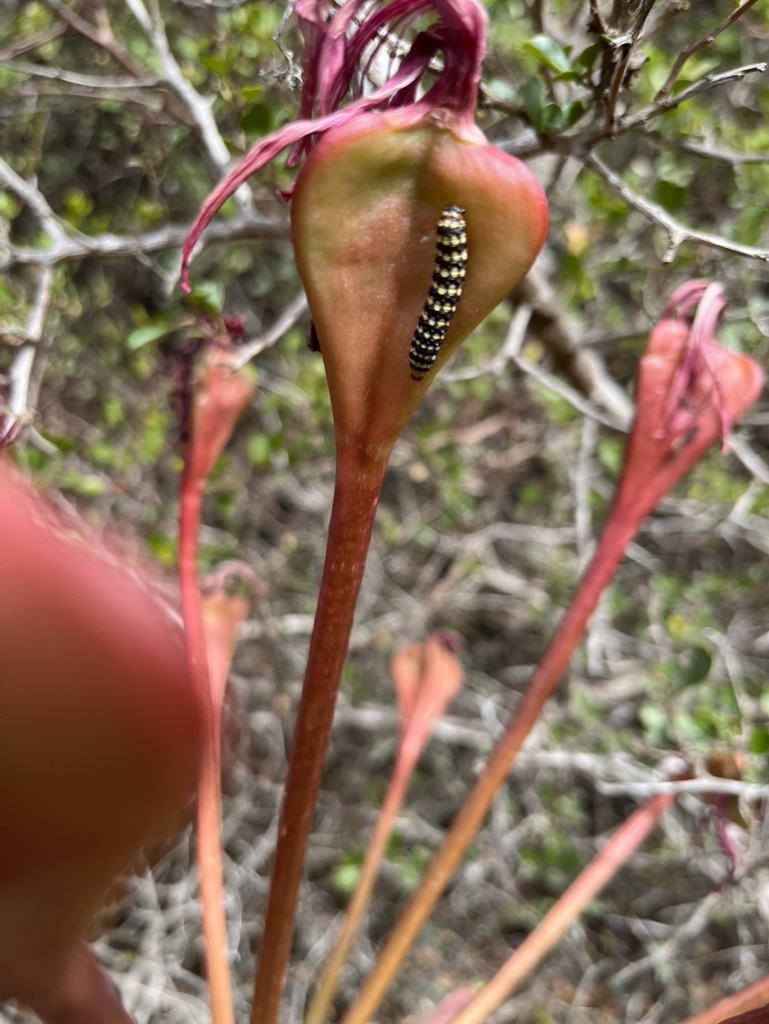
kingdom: Animalia
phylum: Arthropoda
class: Insecta
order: Lepidoptera
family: Noctuidae
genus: Brithys
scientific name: Brithys crini
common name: Kew arches
